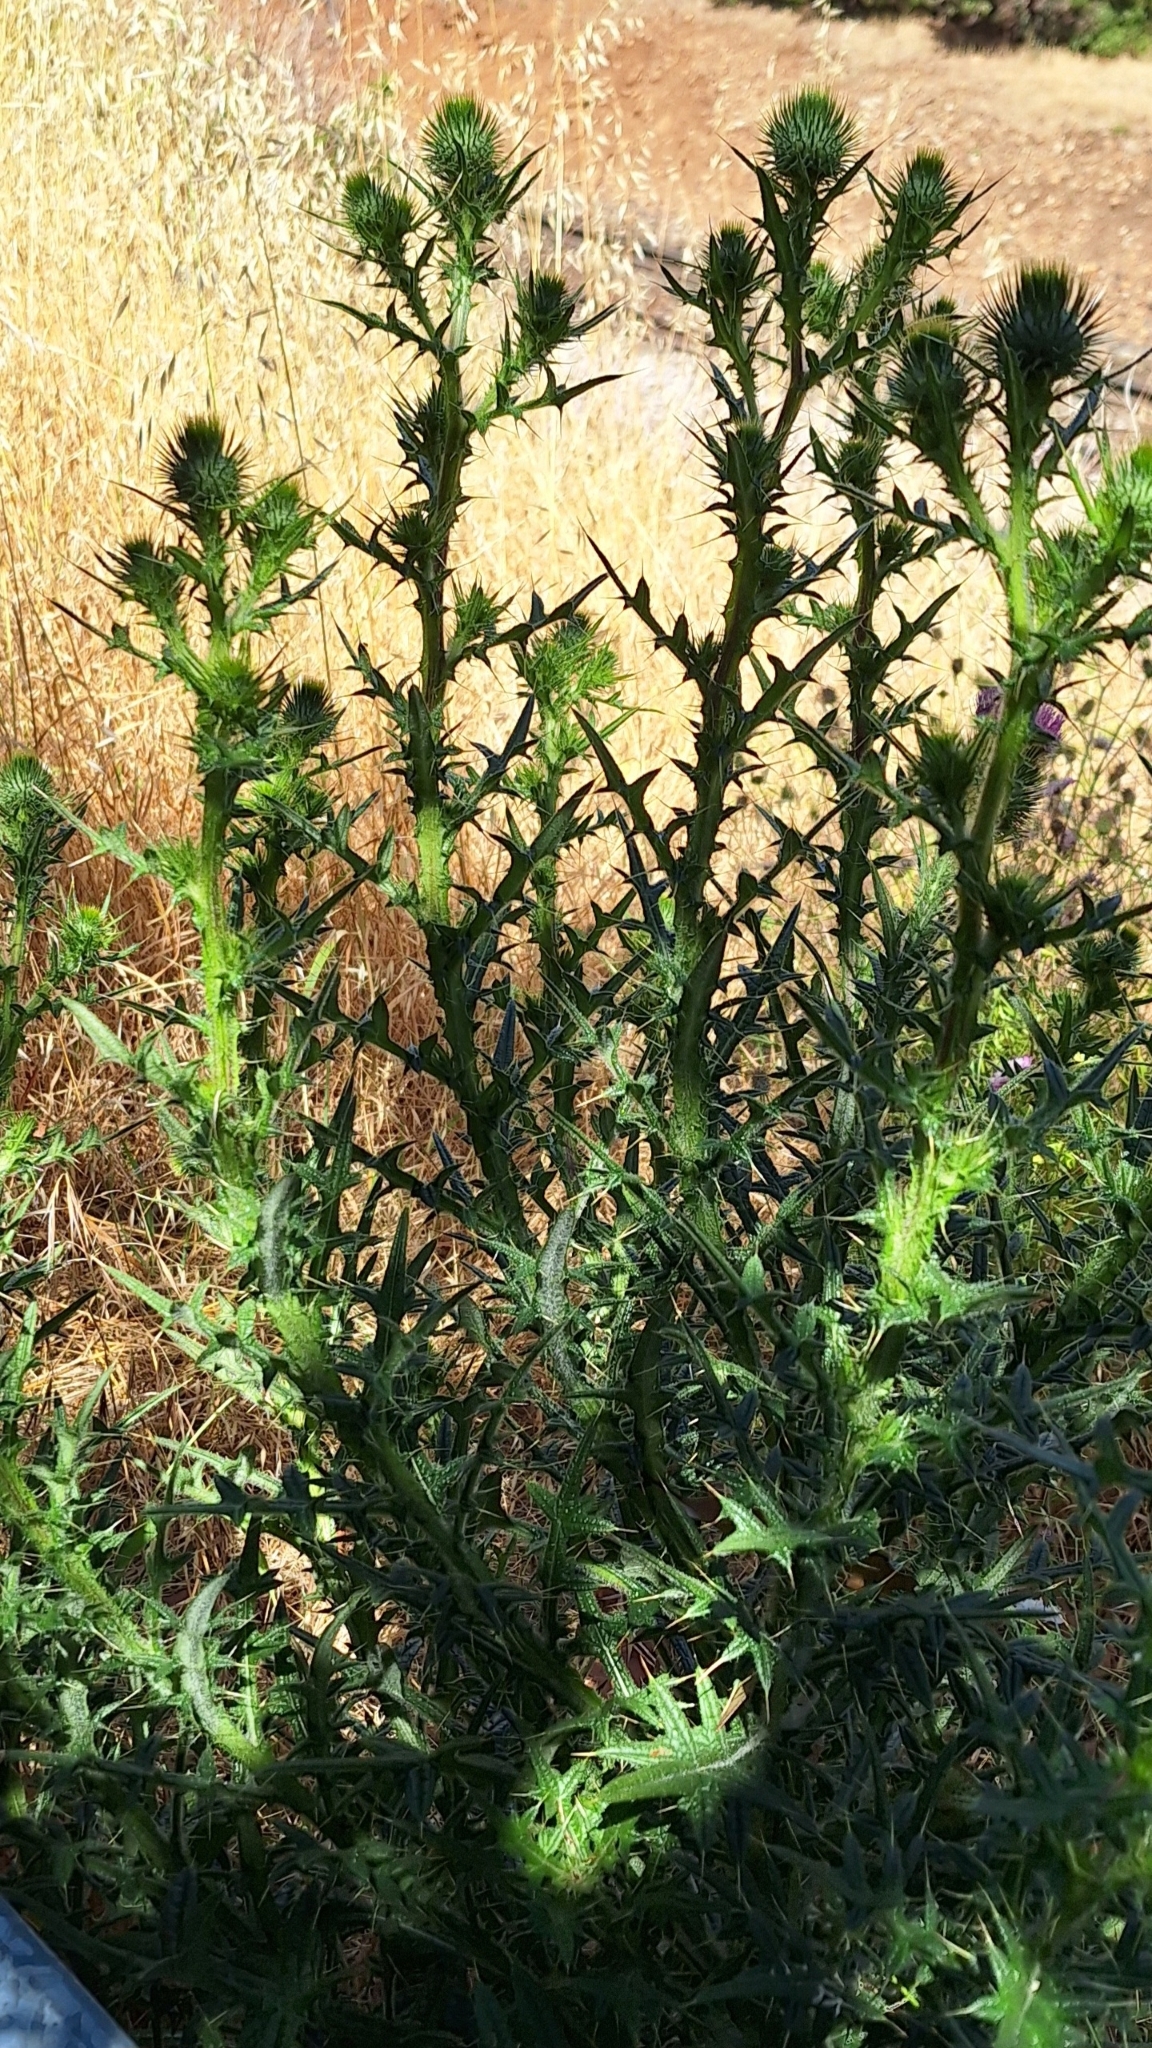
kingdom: Plantae
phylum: Tracheophyta
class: Magnoliopsida
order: Asterales
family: Asteraceae
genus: Cirsium
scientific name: Cirsium vulgare
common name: Bull thistle
